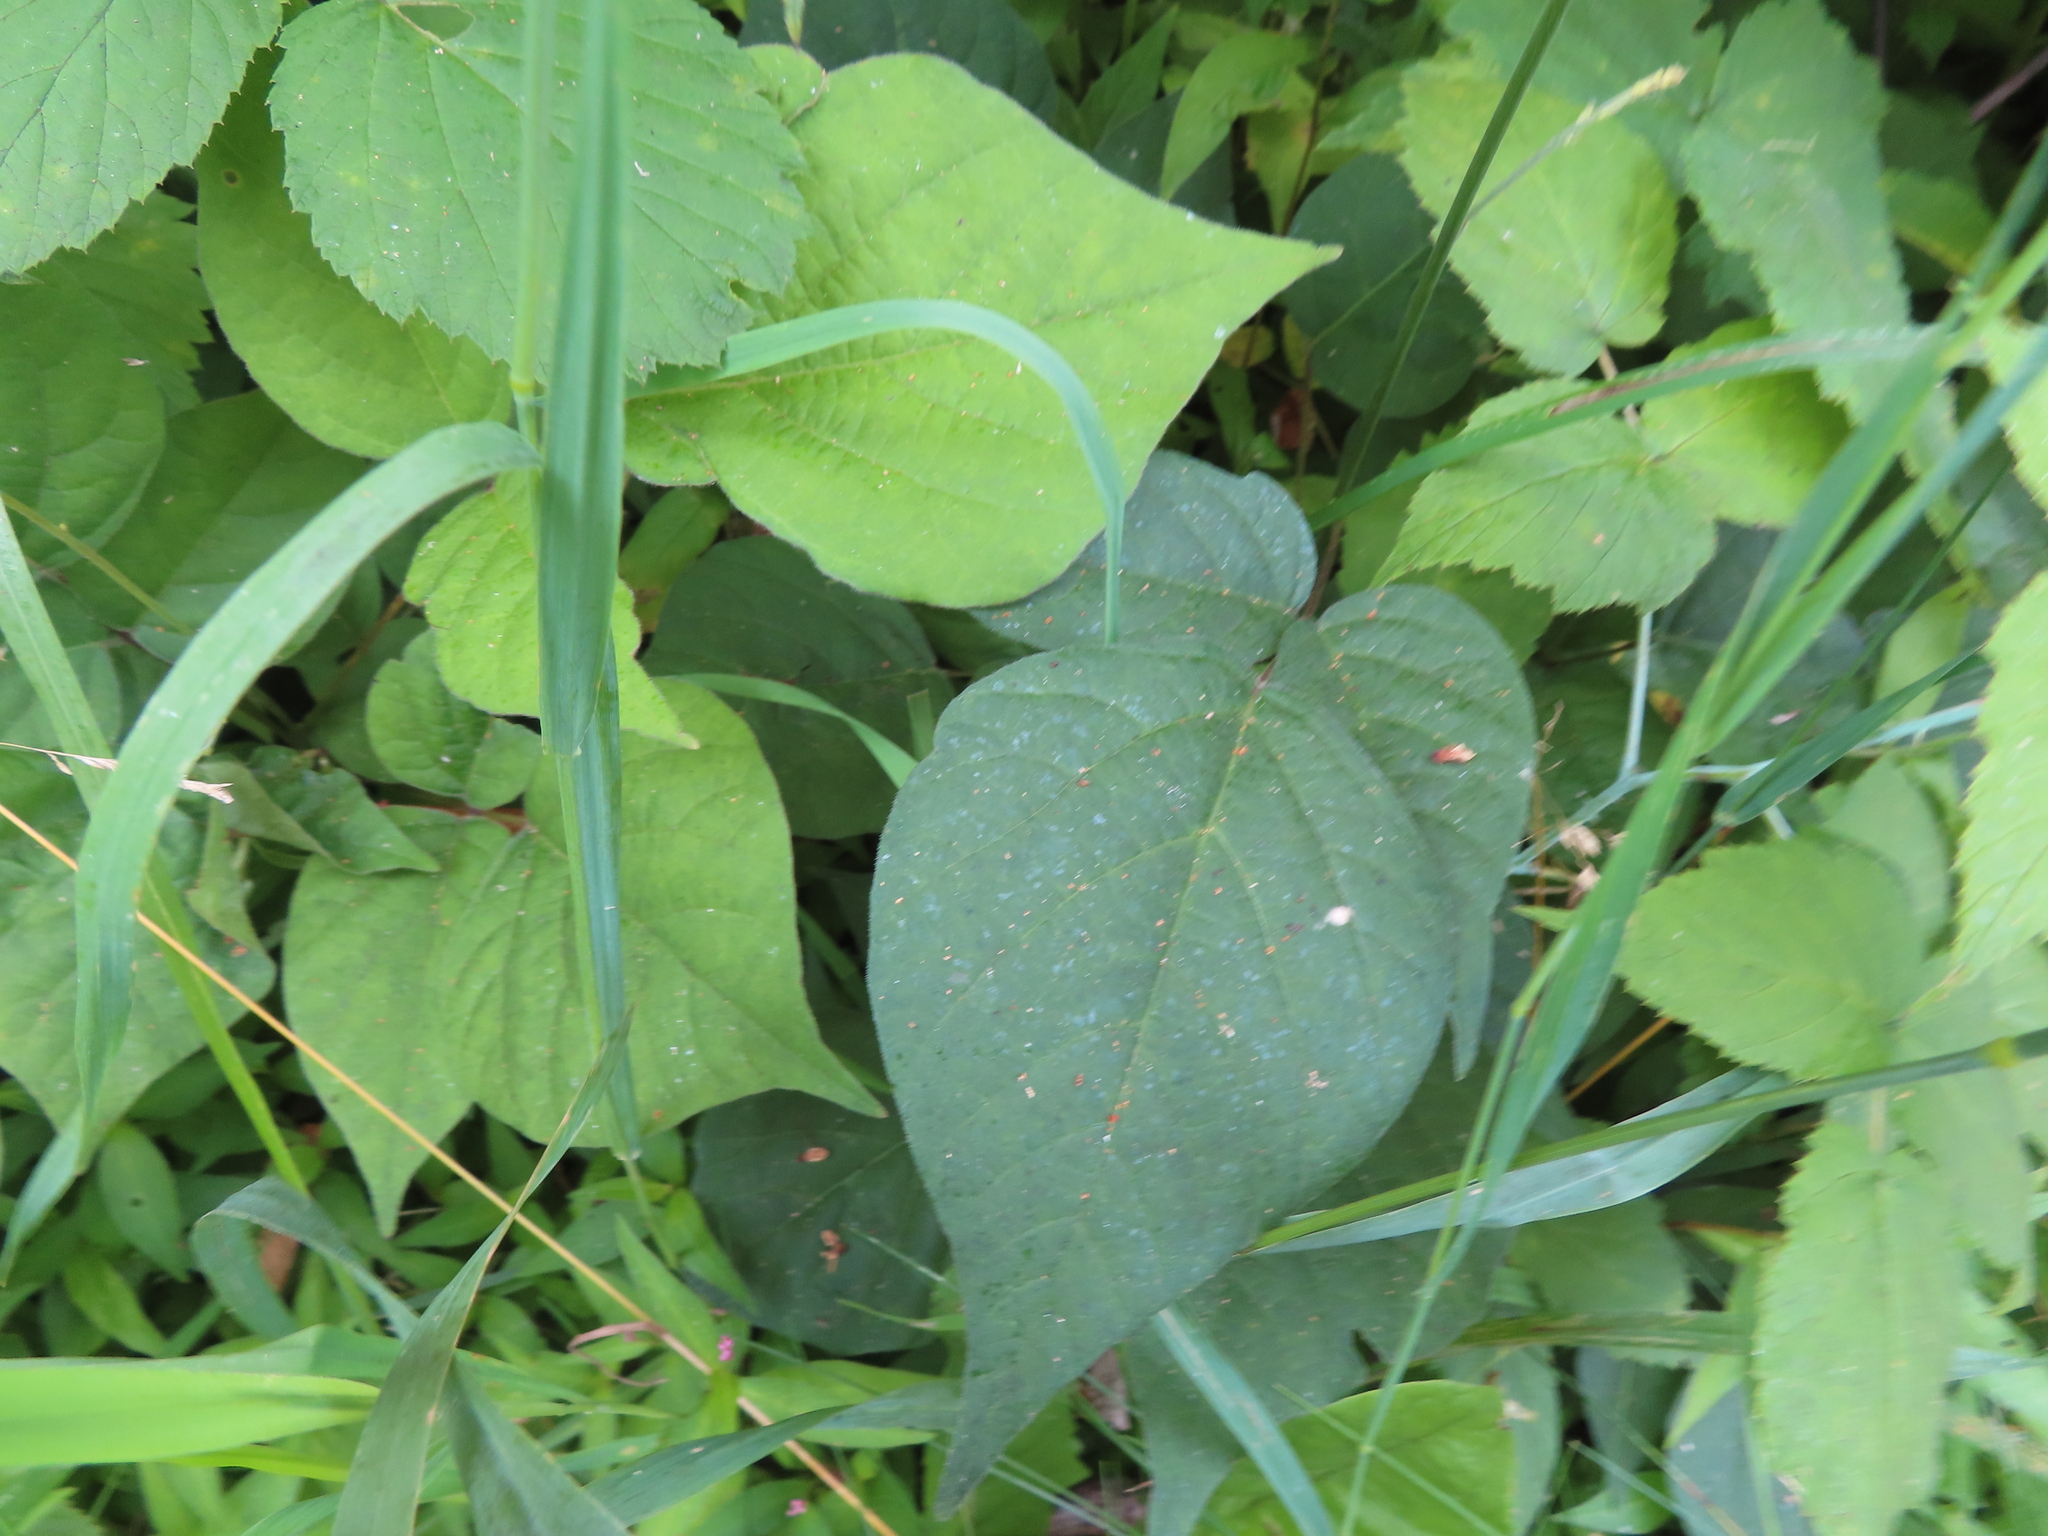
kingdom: Plantae
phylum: Tracheophyta
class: Magnoliopsida
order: Fabales
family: Fabaceae
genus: Hylodesmum
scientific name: Hylodesmum glutinosum
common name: Clustered-leaved tick-trefoil
